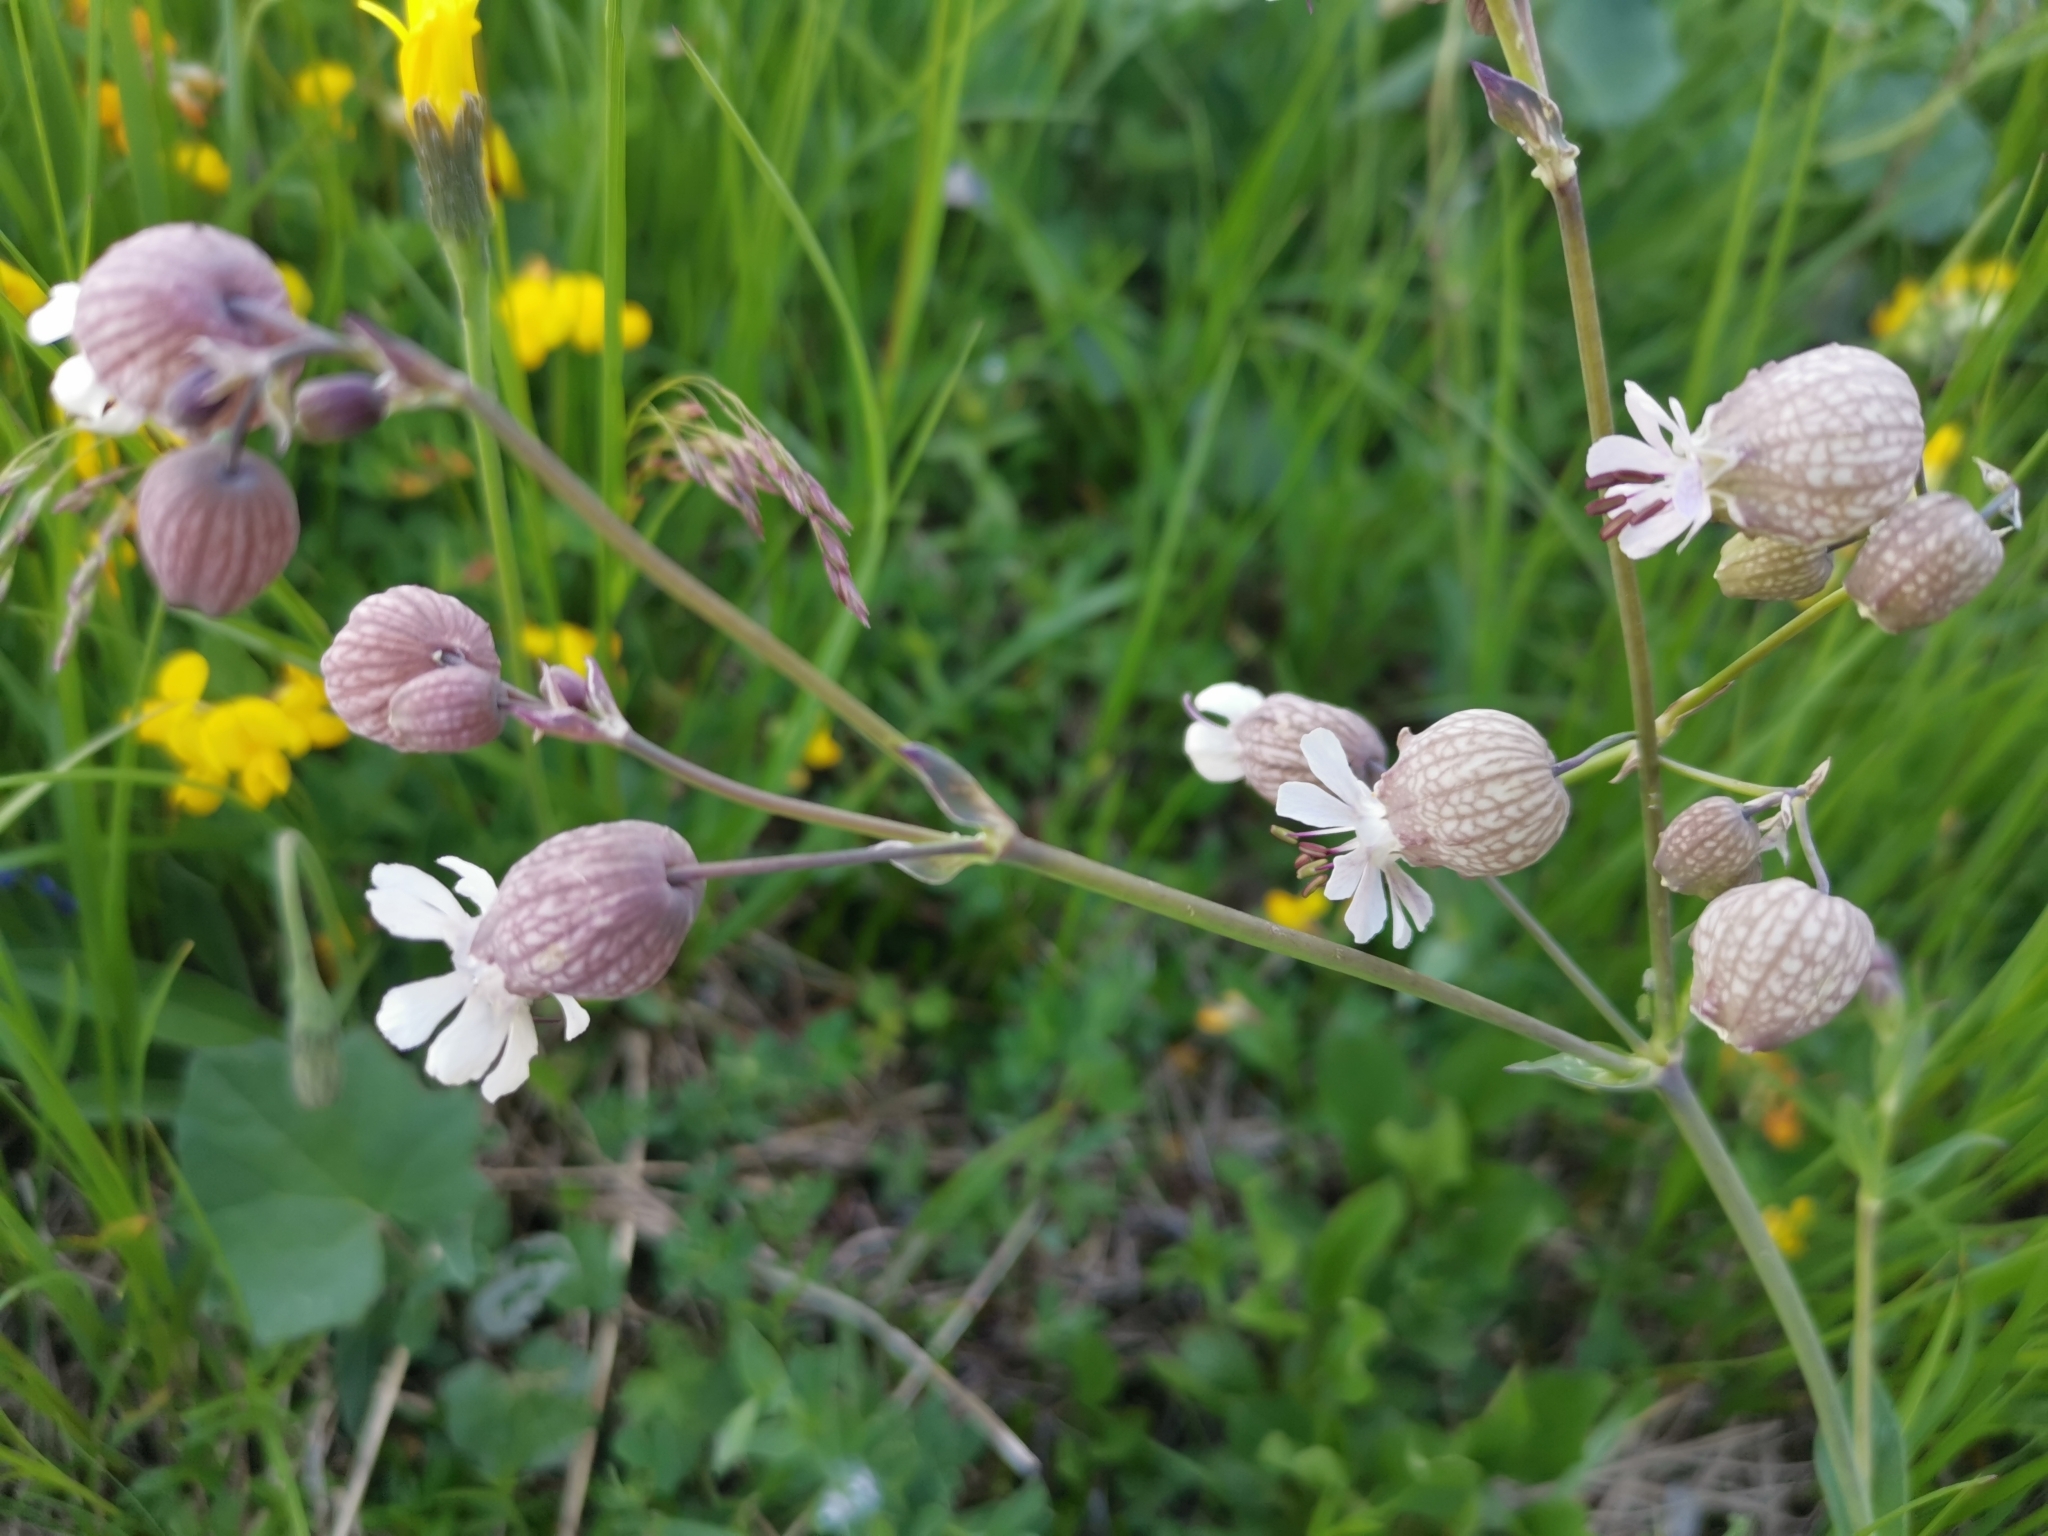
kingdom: Plantae
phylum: Tracheophyta
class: Magnoliopsida
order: Caryophyllales
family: Caryophyllaceae
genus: Silene
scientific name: Silene vulgaris
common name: Bladder campion
